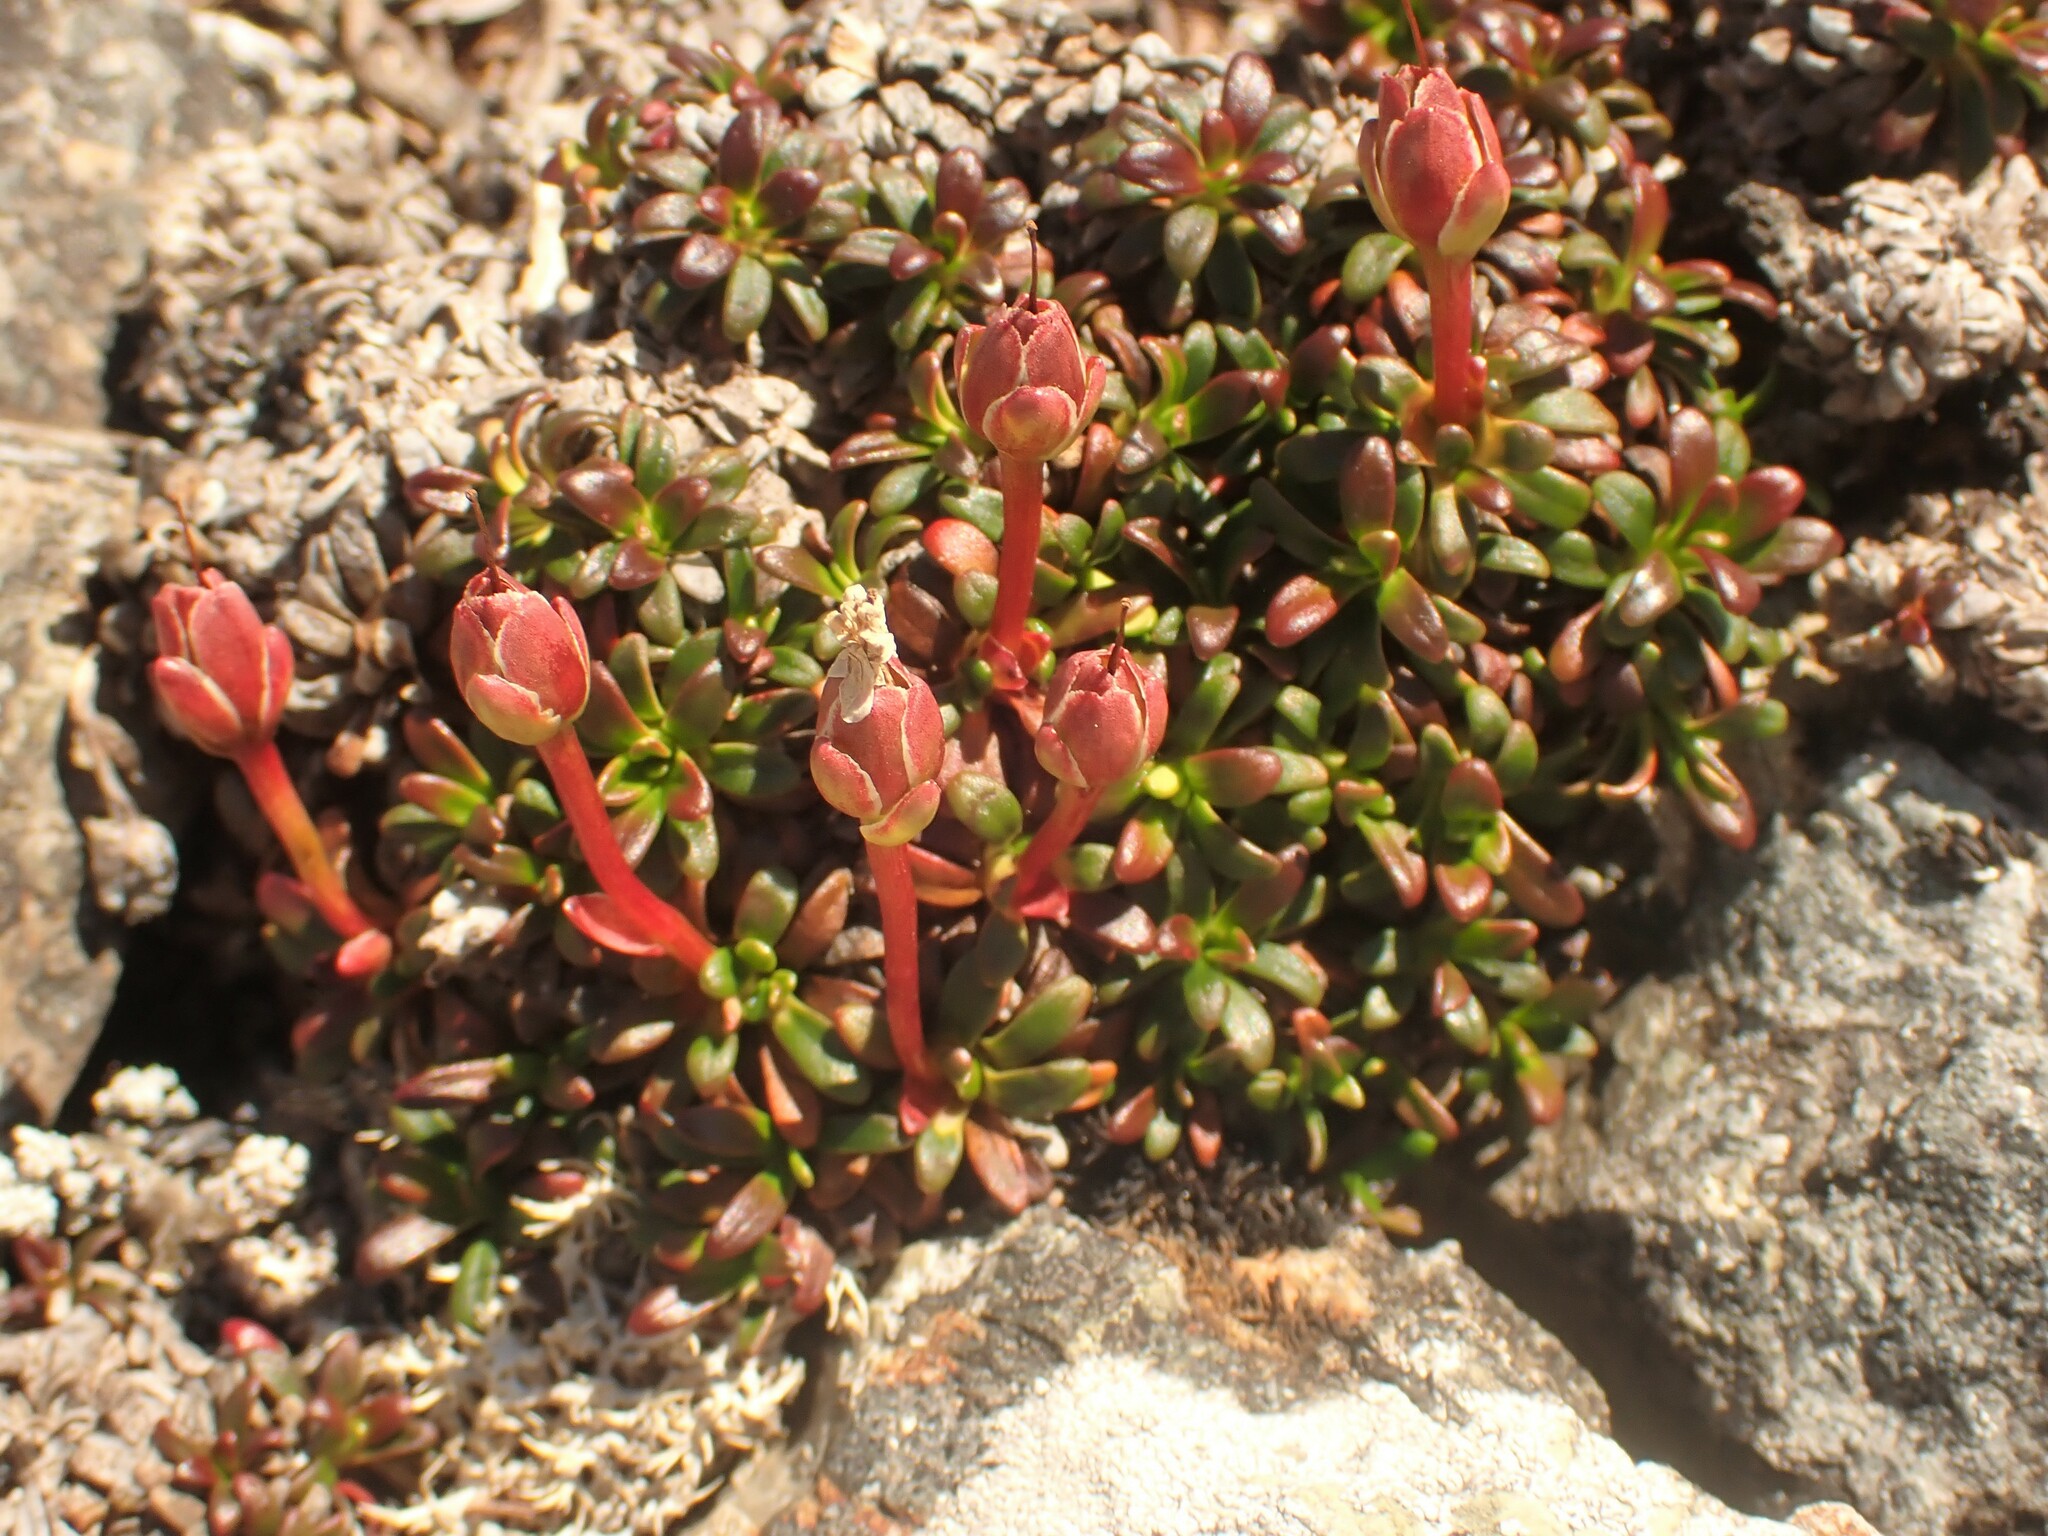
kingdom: Plantae
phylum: Tracheophyta
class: Magnoliopsida
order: Ericales
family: Diapensiaceae
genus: Diapensia
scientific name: Diapensia lapponica
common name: Diapensia
